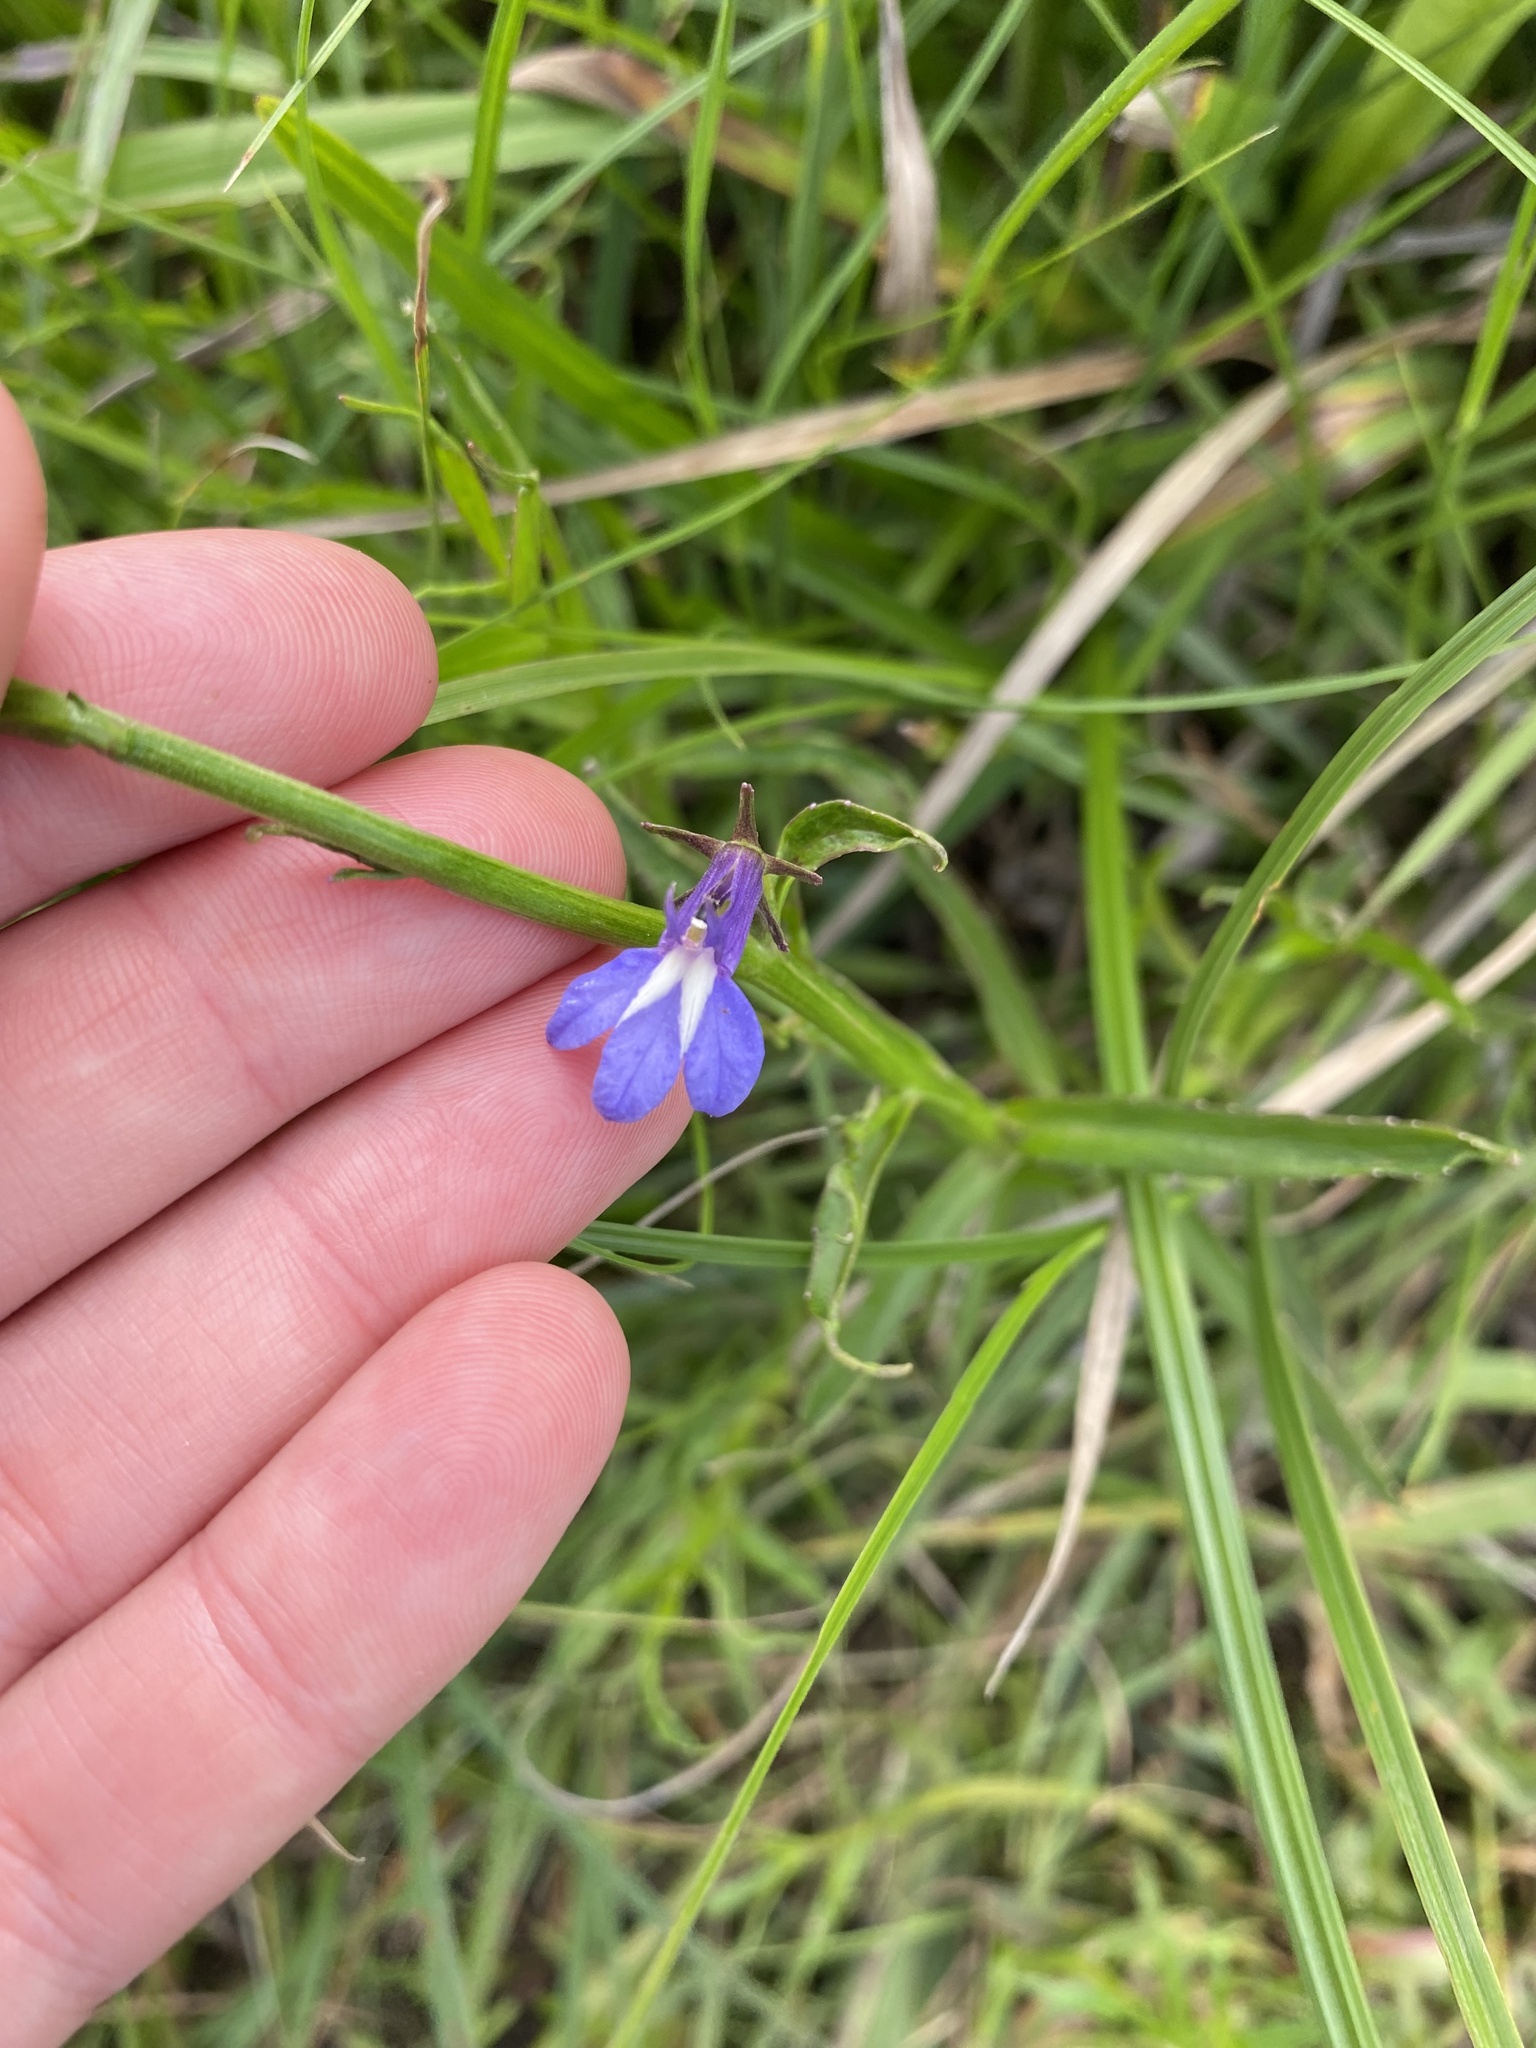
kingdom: Plantae
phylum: Tracheophyta
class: Magnoliopsida
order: Asterales
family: Campanulaceae
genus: Grammatotheca
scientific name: Grammatotheca bergiana
